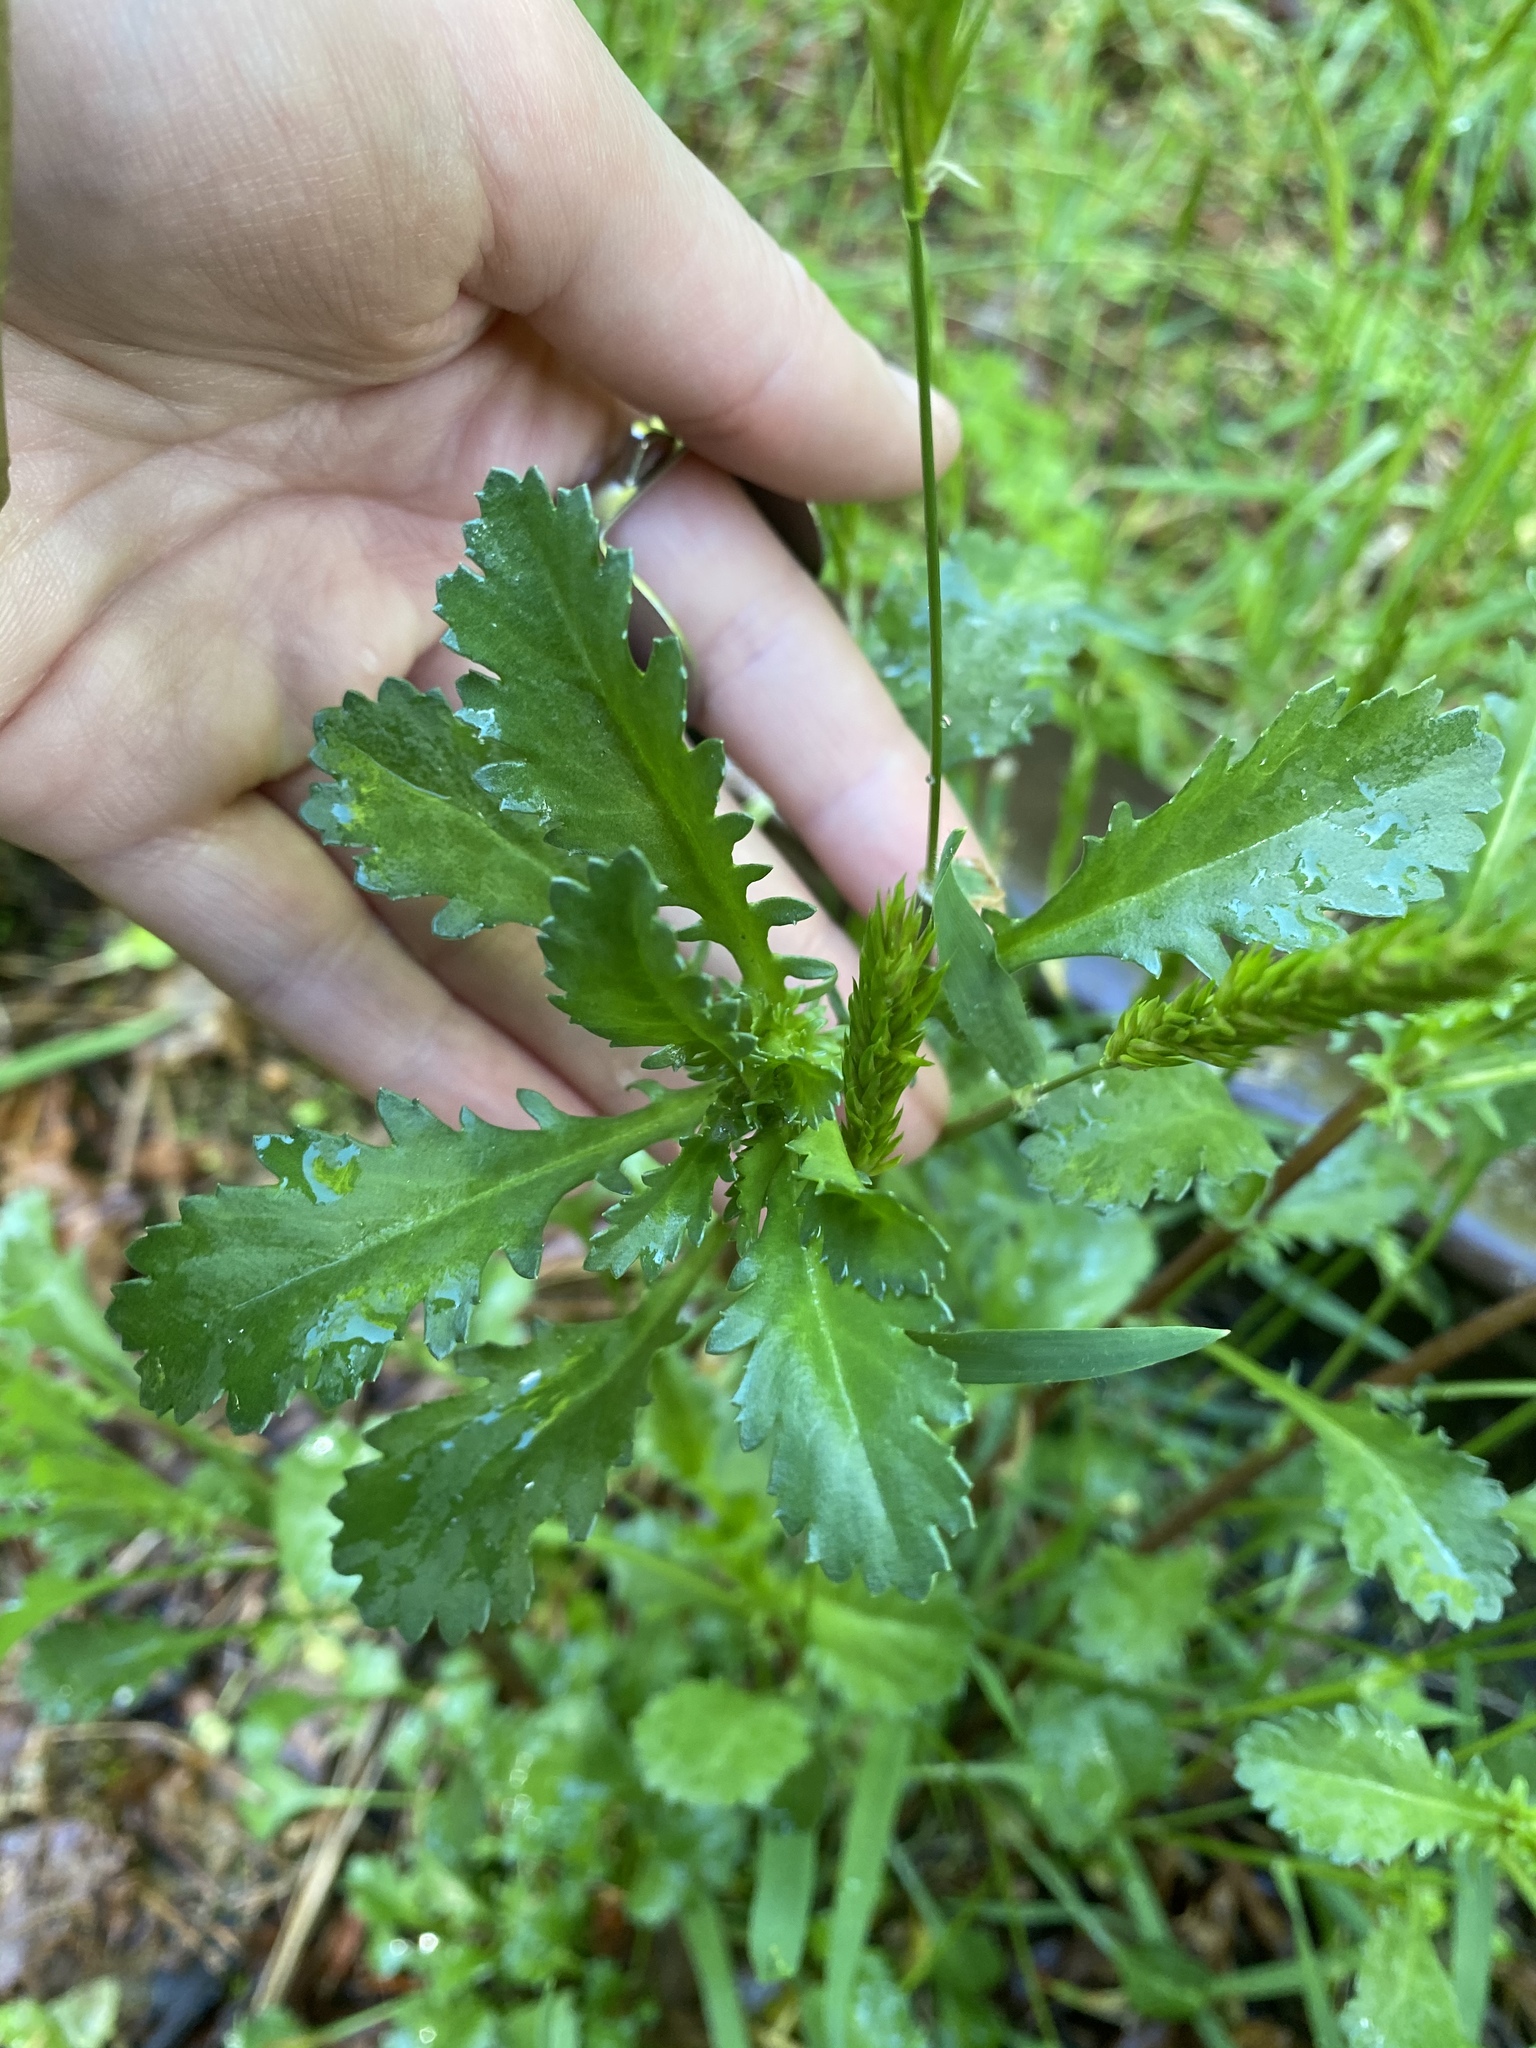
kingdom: Plantae
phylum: Tracheophyta
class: Magnoliopsida
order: Asterales
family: Asteraceae
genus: Leucanthemum
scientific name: Leucanthemum vulgare
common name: Oxeye daisy
